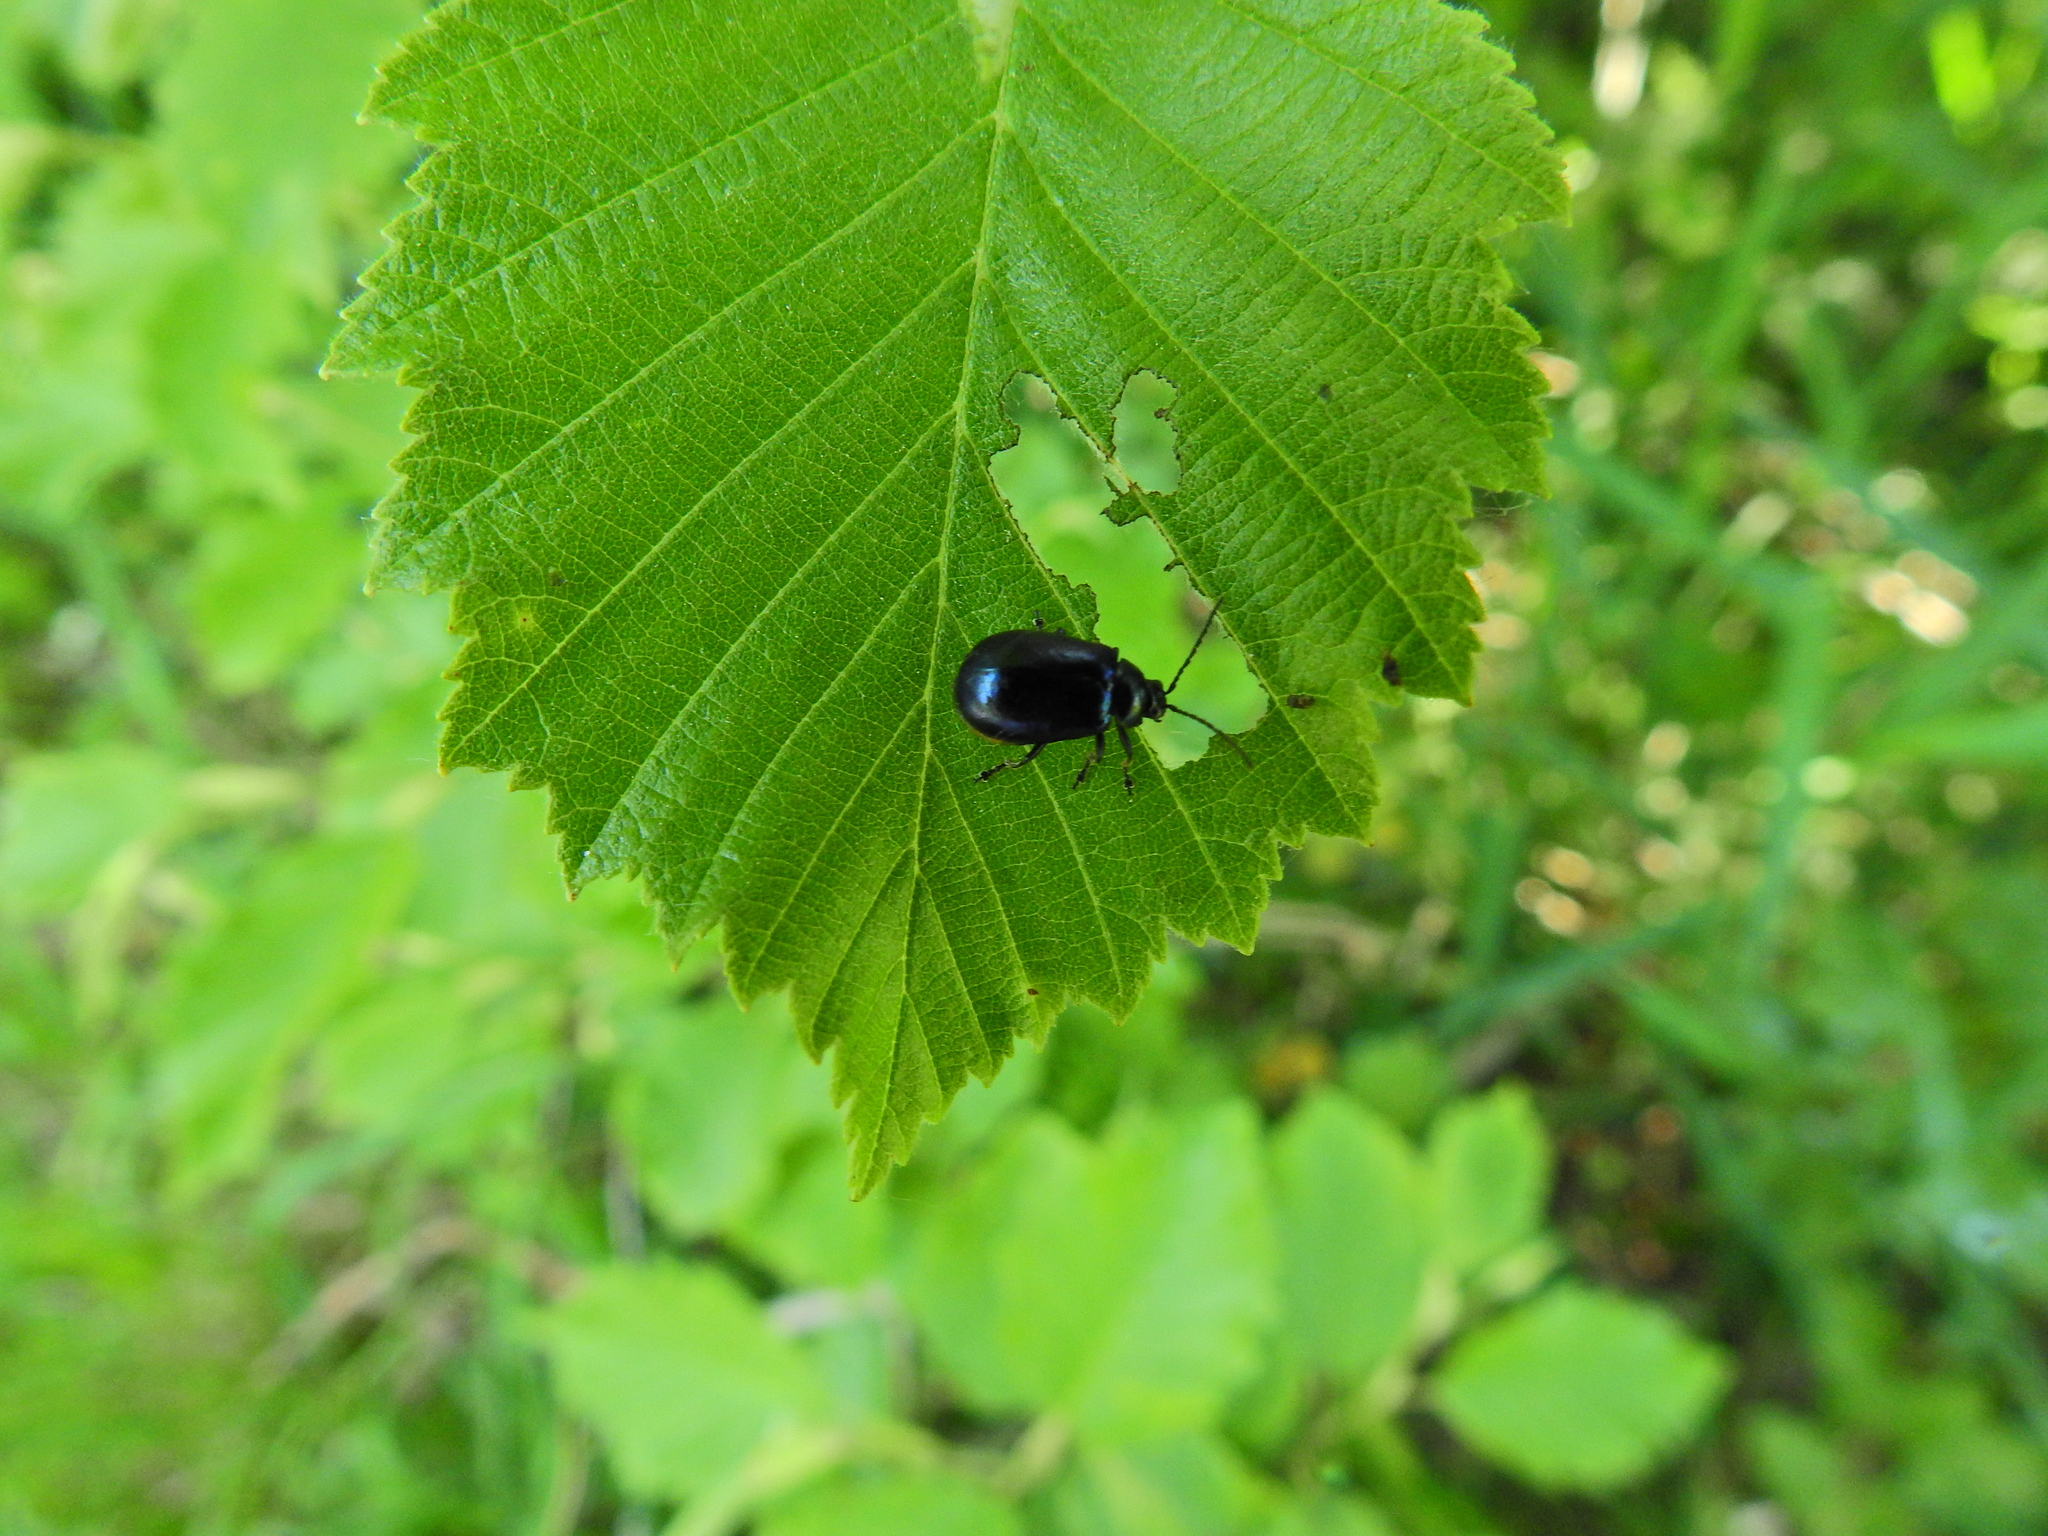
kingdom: Animalia
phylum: Arthropoda
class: Insecta
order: Coleoptera
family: Chrysomelidae
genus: Agelastica
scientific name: Agelastica alni
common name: Alder leaf beetle
